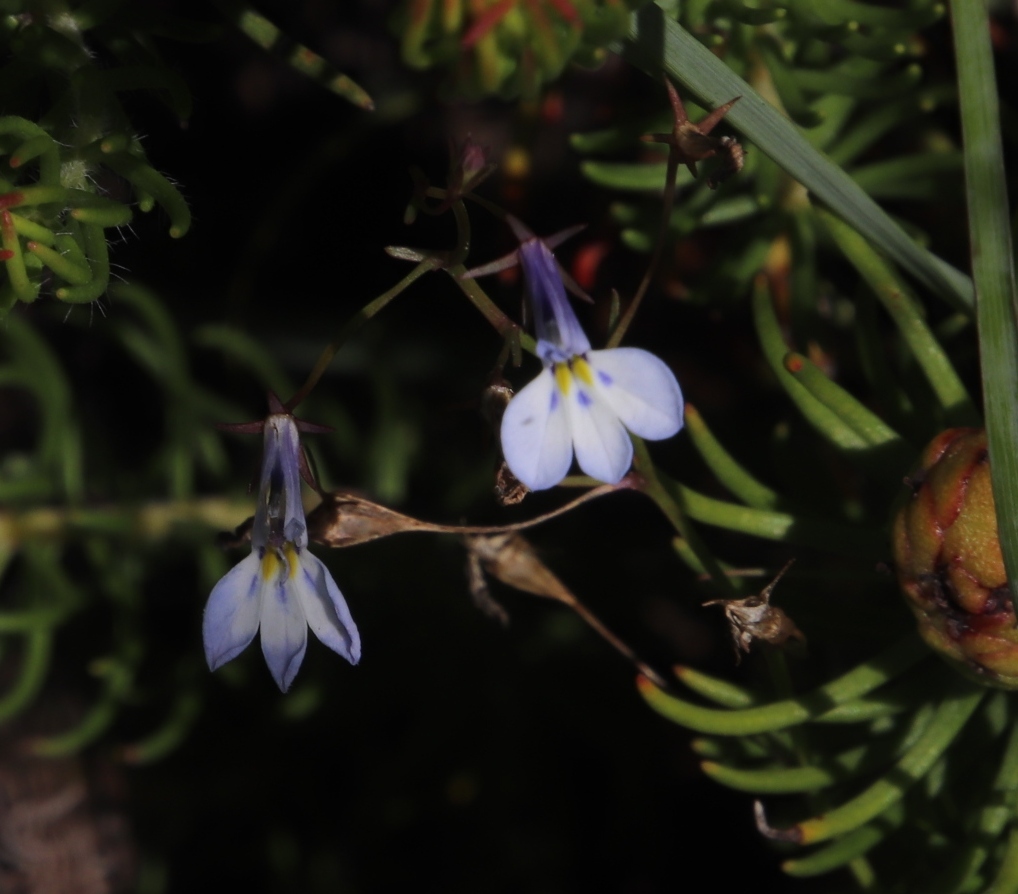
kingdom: Plantae
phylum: Tracheophyta
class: Magnoliopsida
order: Asterales
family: Campanulaceae
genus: Lobelia
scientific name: Lobelia erinus
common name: Edging lobelia
